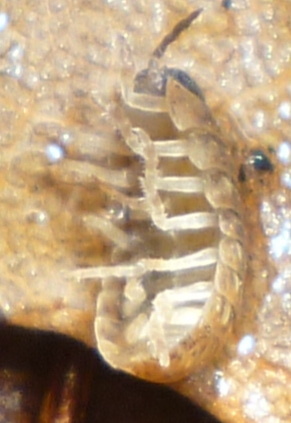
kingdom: Animalia
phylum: Arthropoda
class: Malacostraca
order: Isopoda
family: Armadillidiidae
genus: Armadillidium
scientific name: Armadillidium vulgare
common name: Common pill woodlouse
